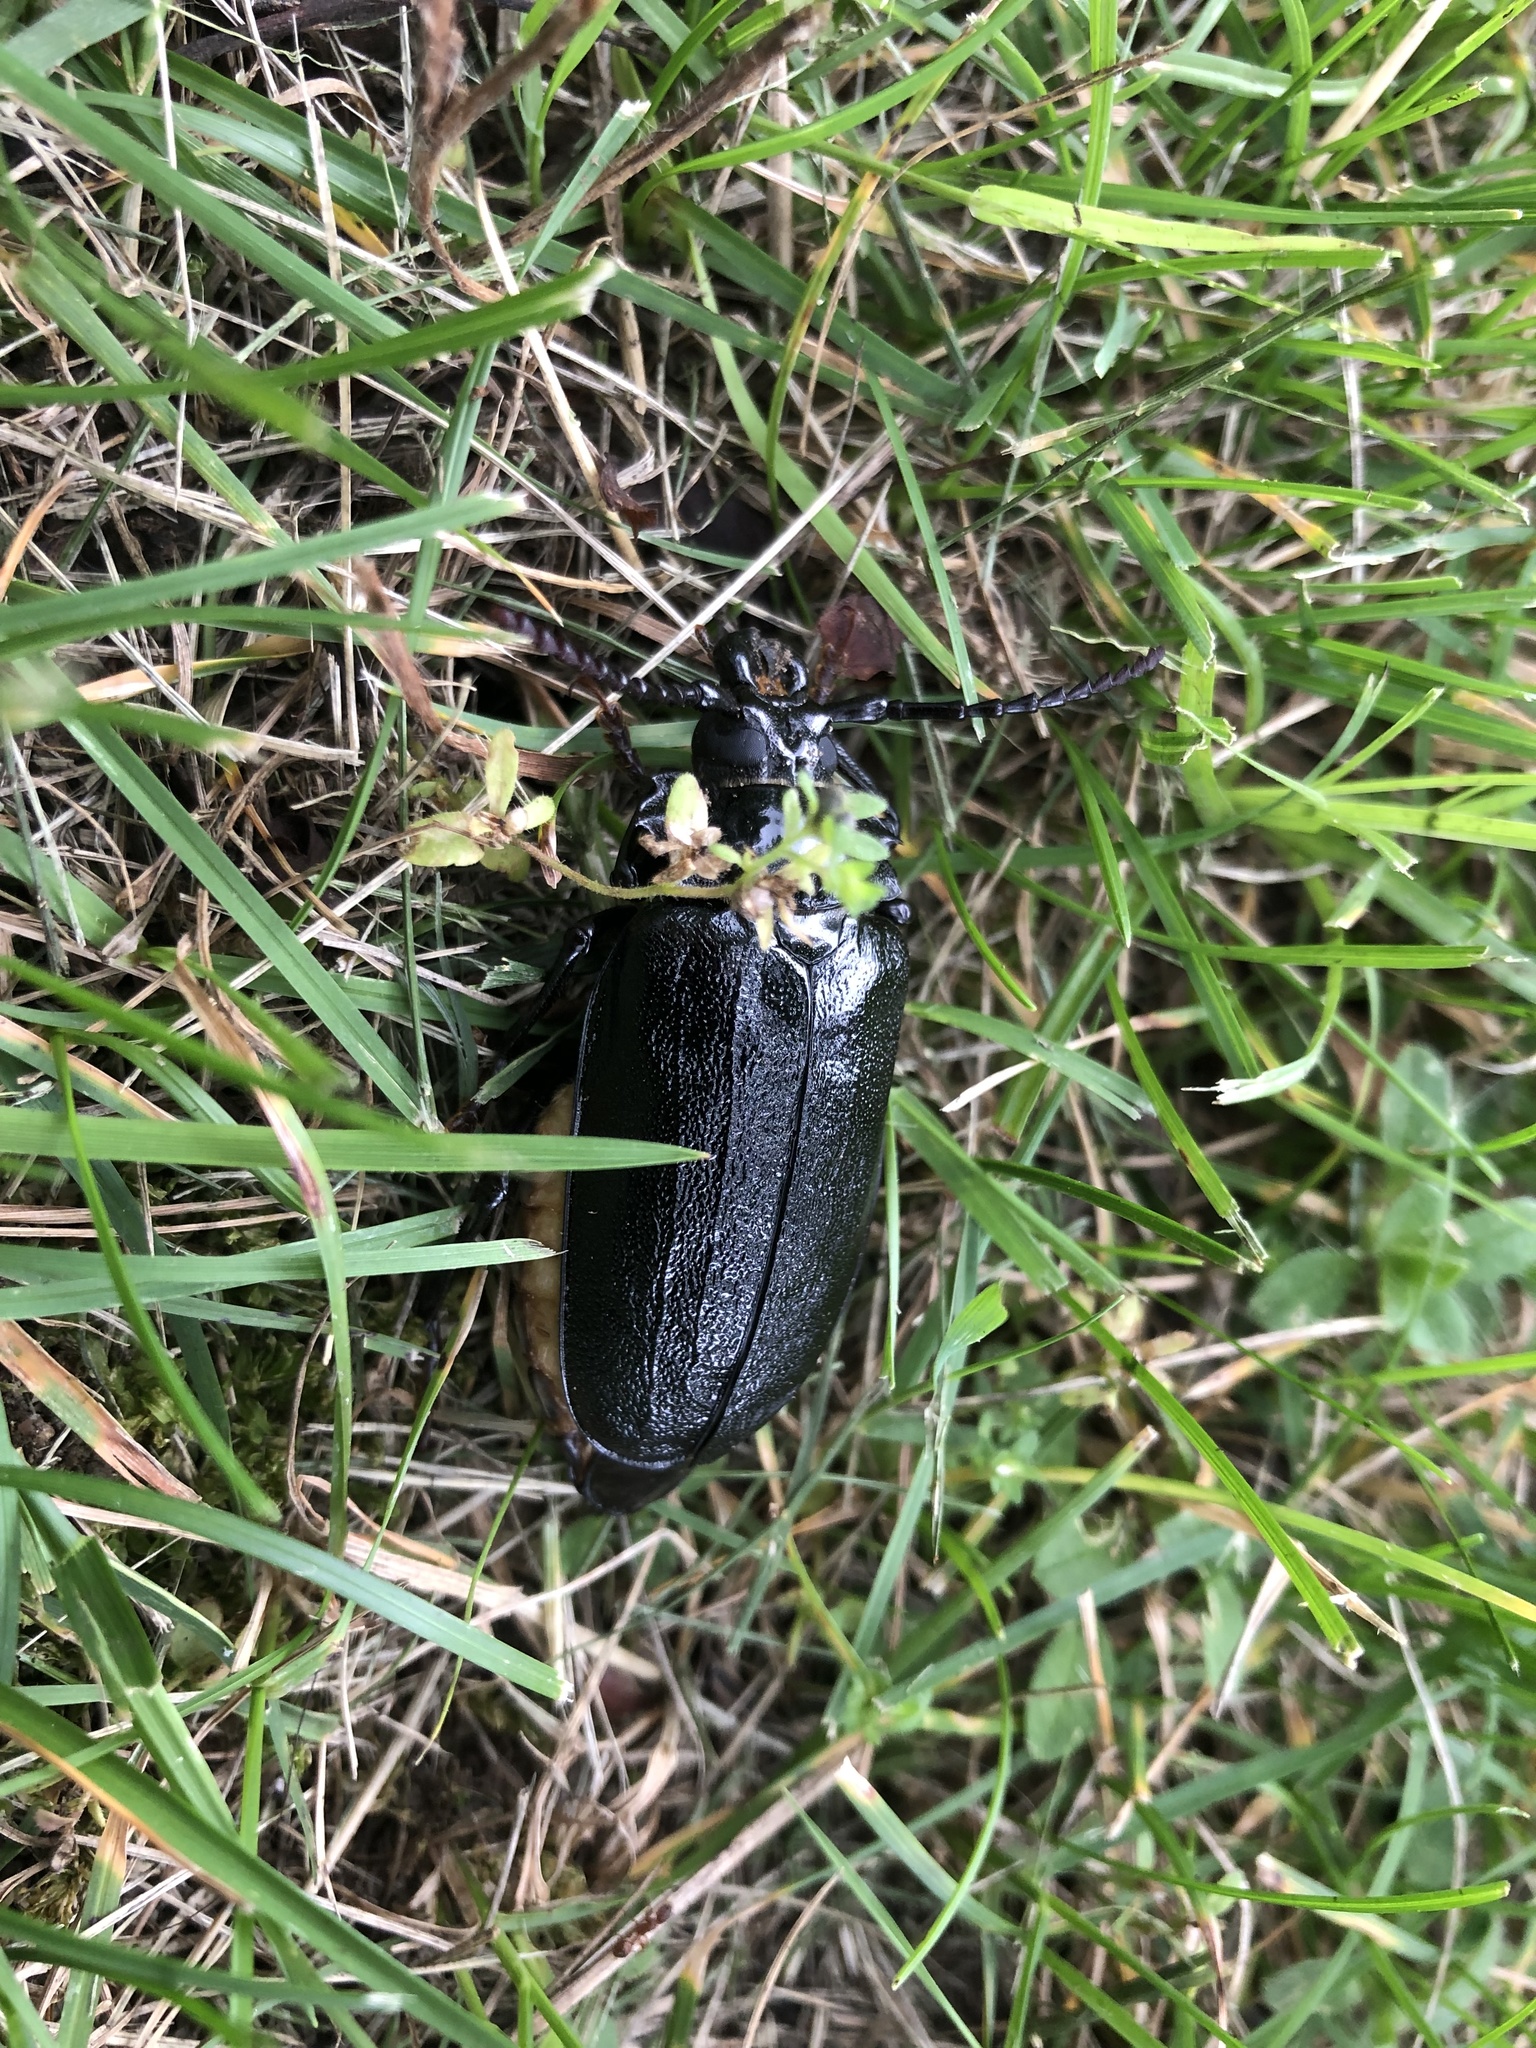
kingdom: Animalia
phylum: Arthropoda
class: Insecta
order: Coleoptera
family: Cerambycidae
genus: Prionus
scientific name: Prionus laticollis
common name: Broad necked prionus
